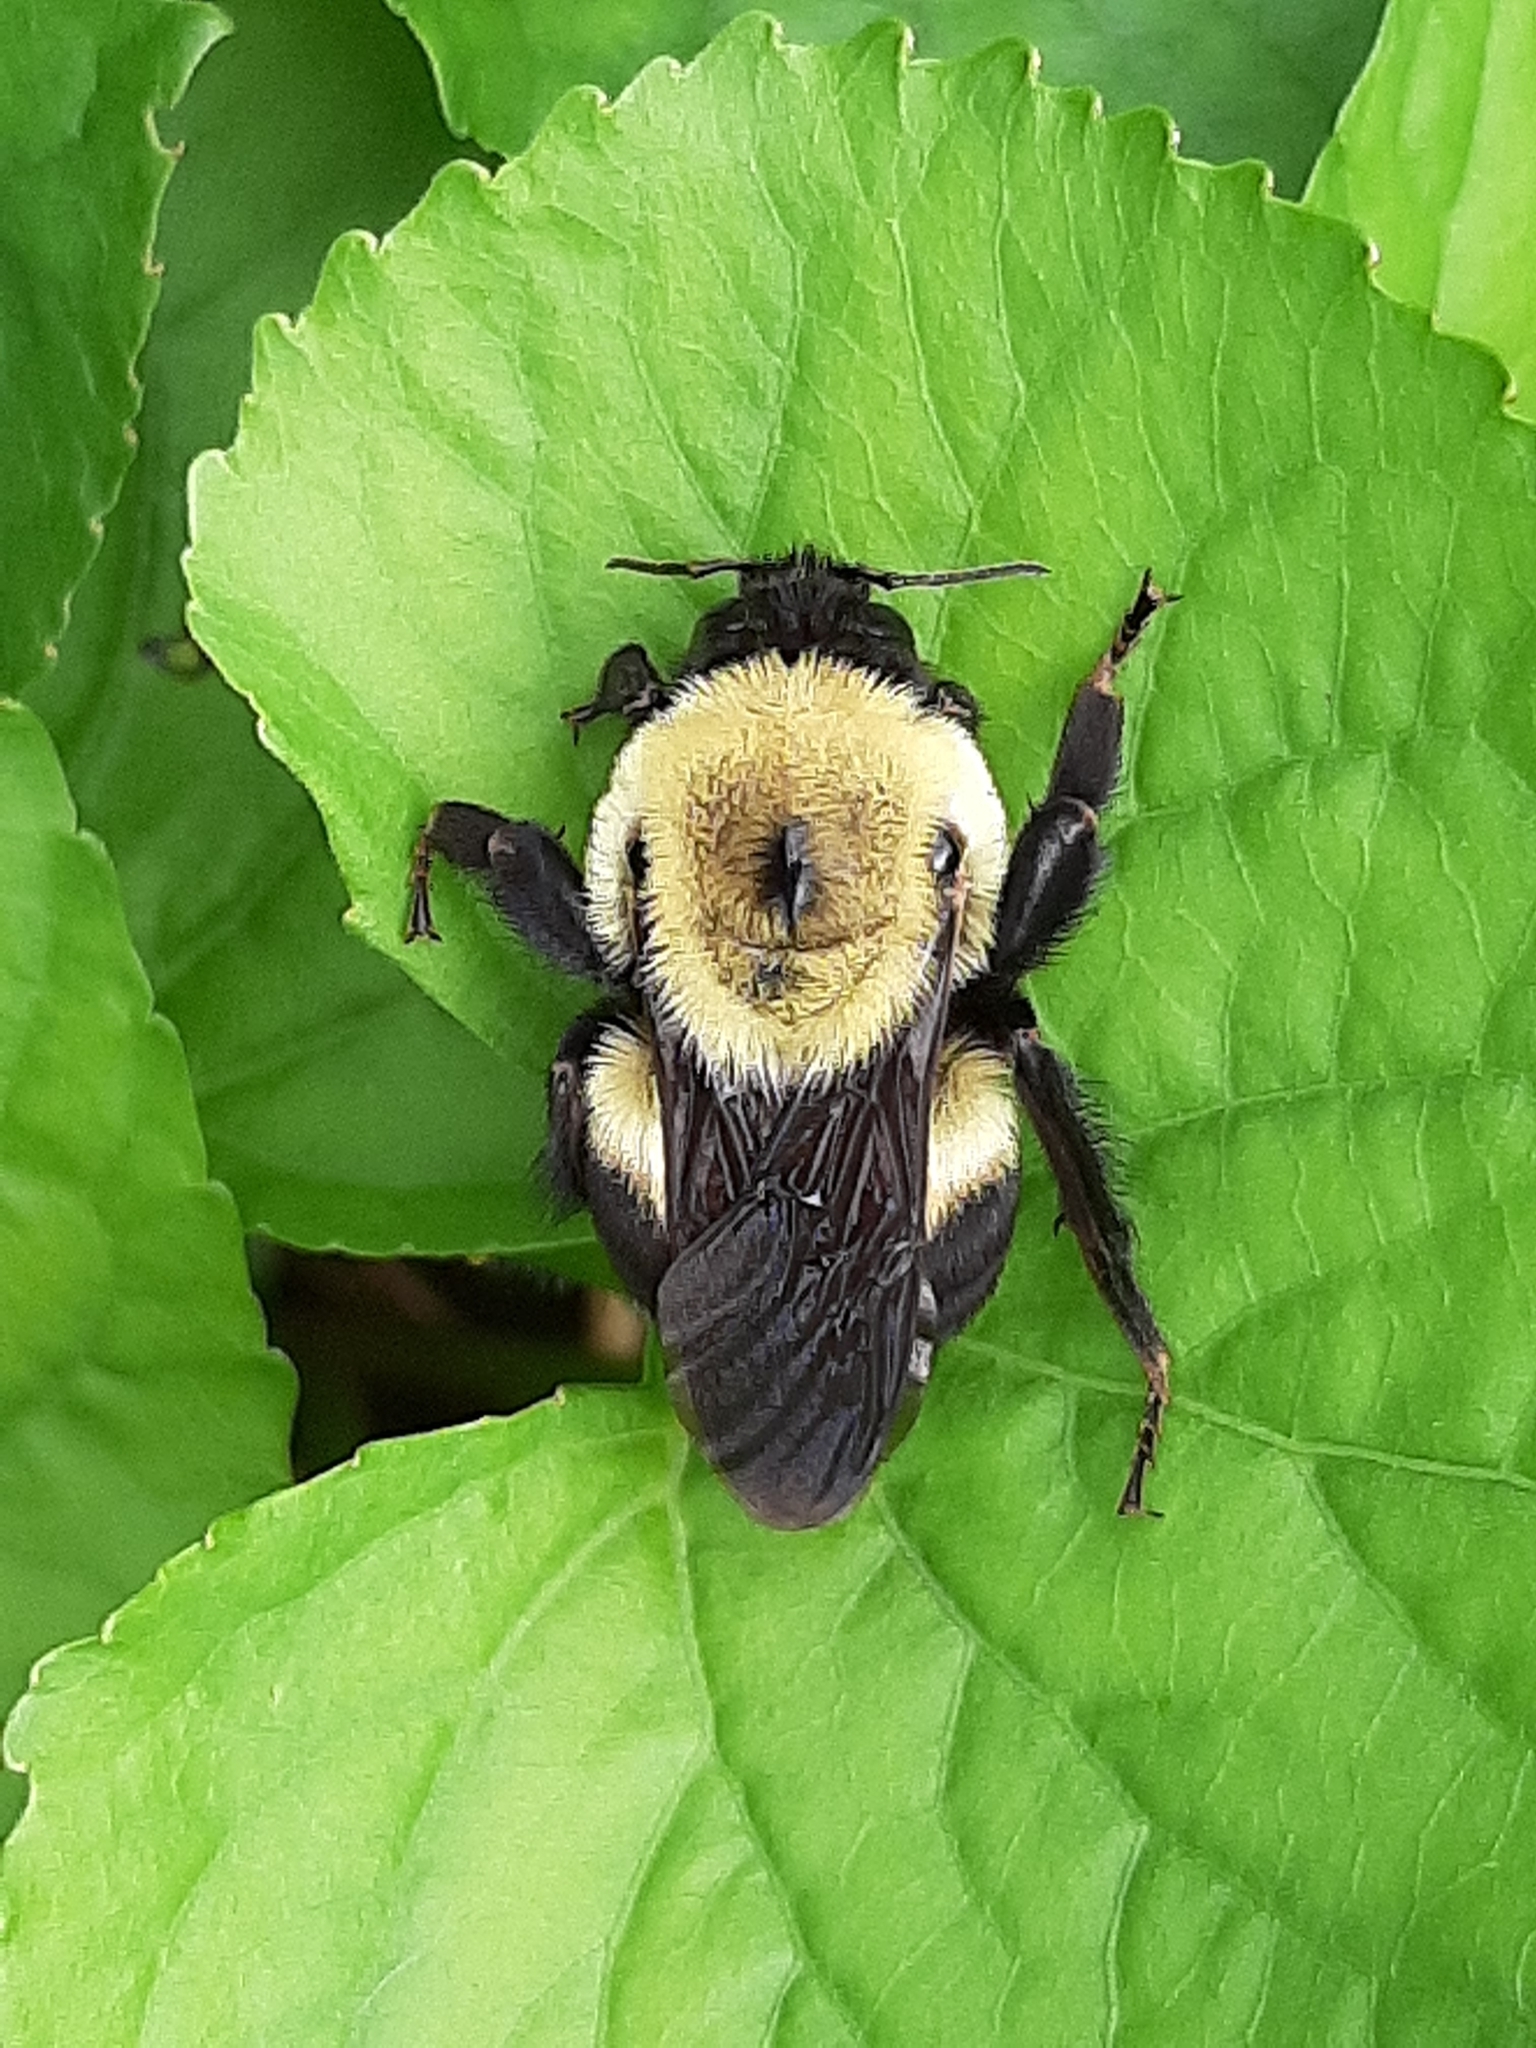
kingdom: Animalia
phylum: Arthropoda
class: Insecta
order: Hymenoptera
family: Apidae
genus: Bombus
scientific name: Bombus griseocollis
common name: Brown-belted bumble bee
